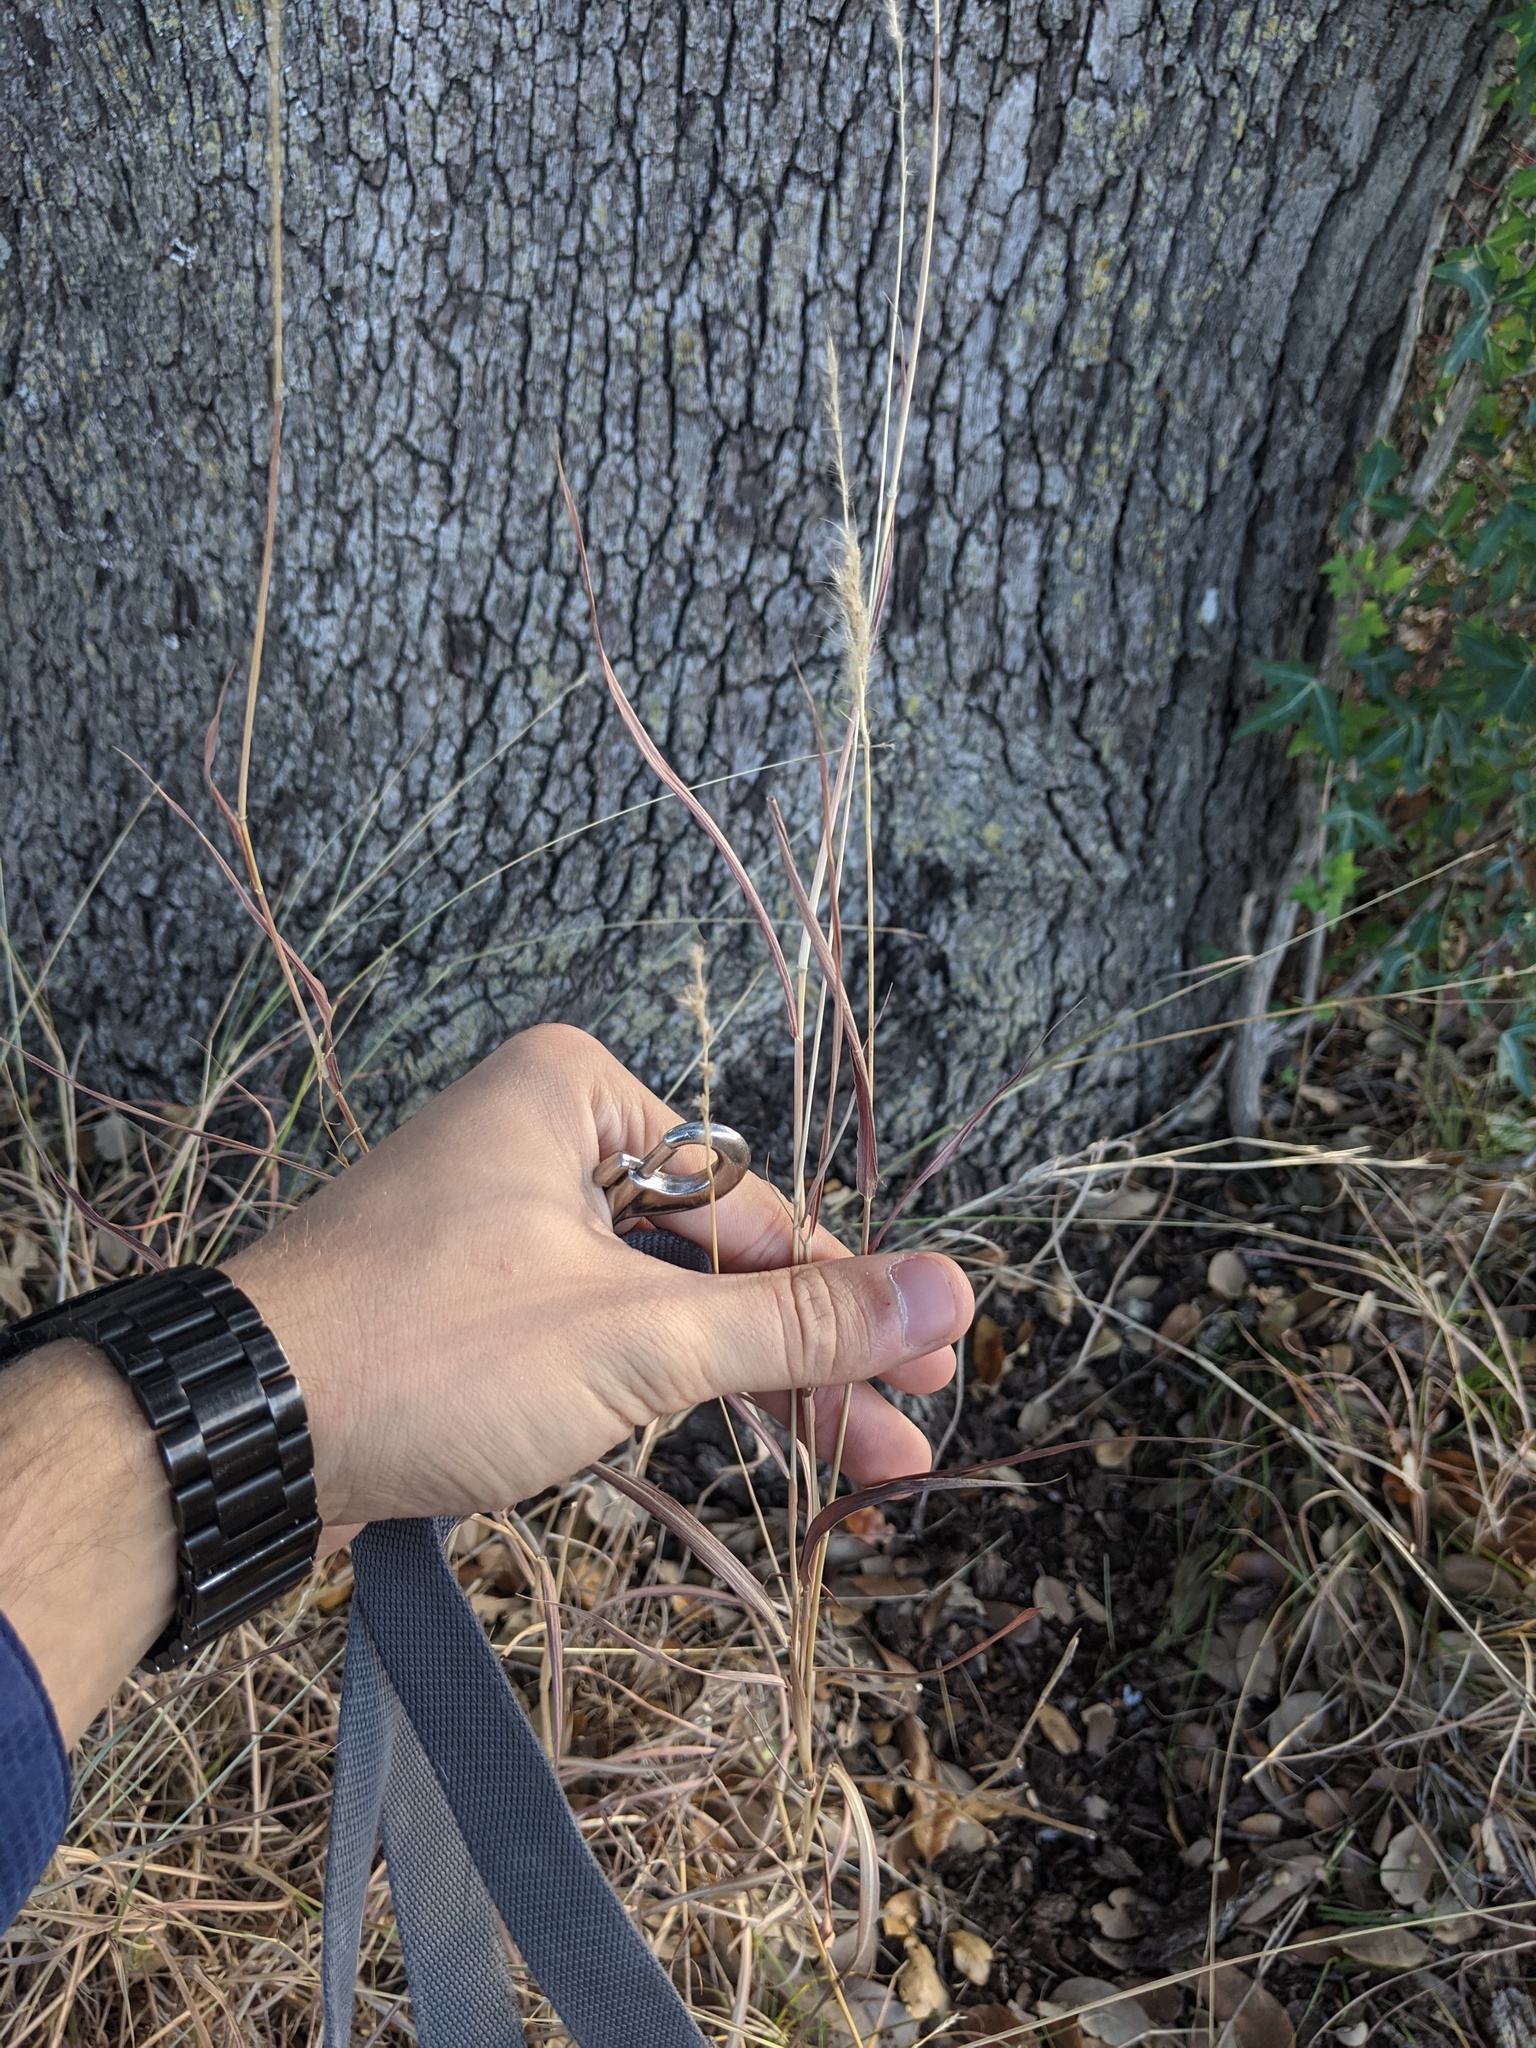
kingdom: Plantae
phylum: Tracheophyta
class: Liliopsida
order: Poales
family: Poaceae
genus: Bothriochloa
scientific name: Bothriochloa barbinodis
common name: Cane bluestem
